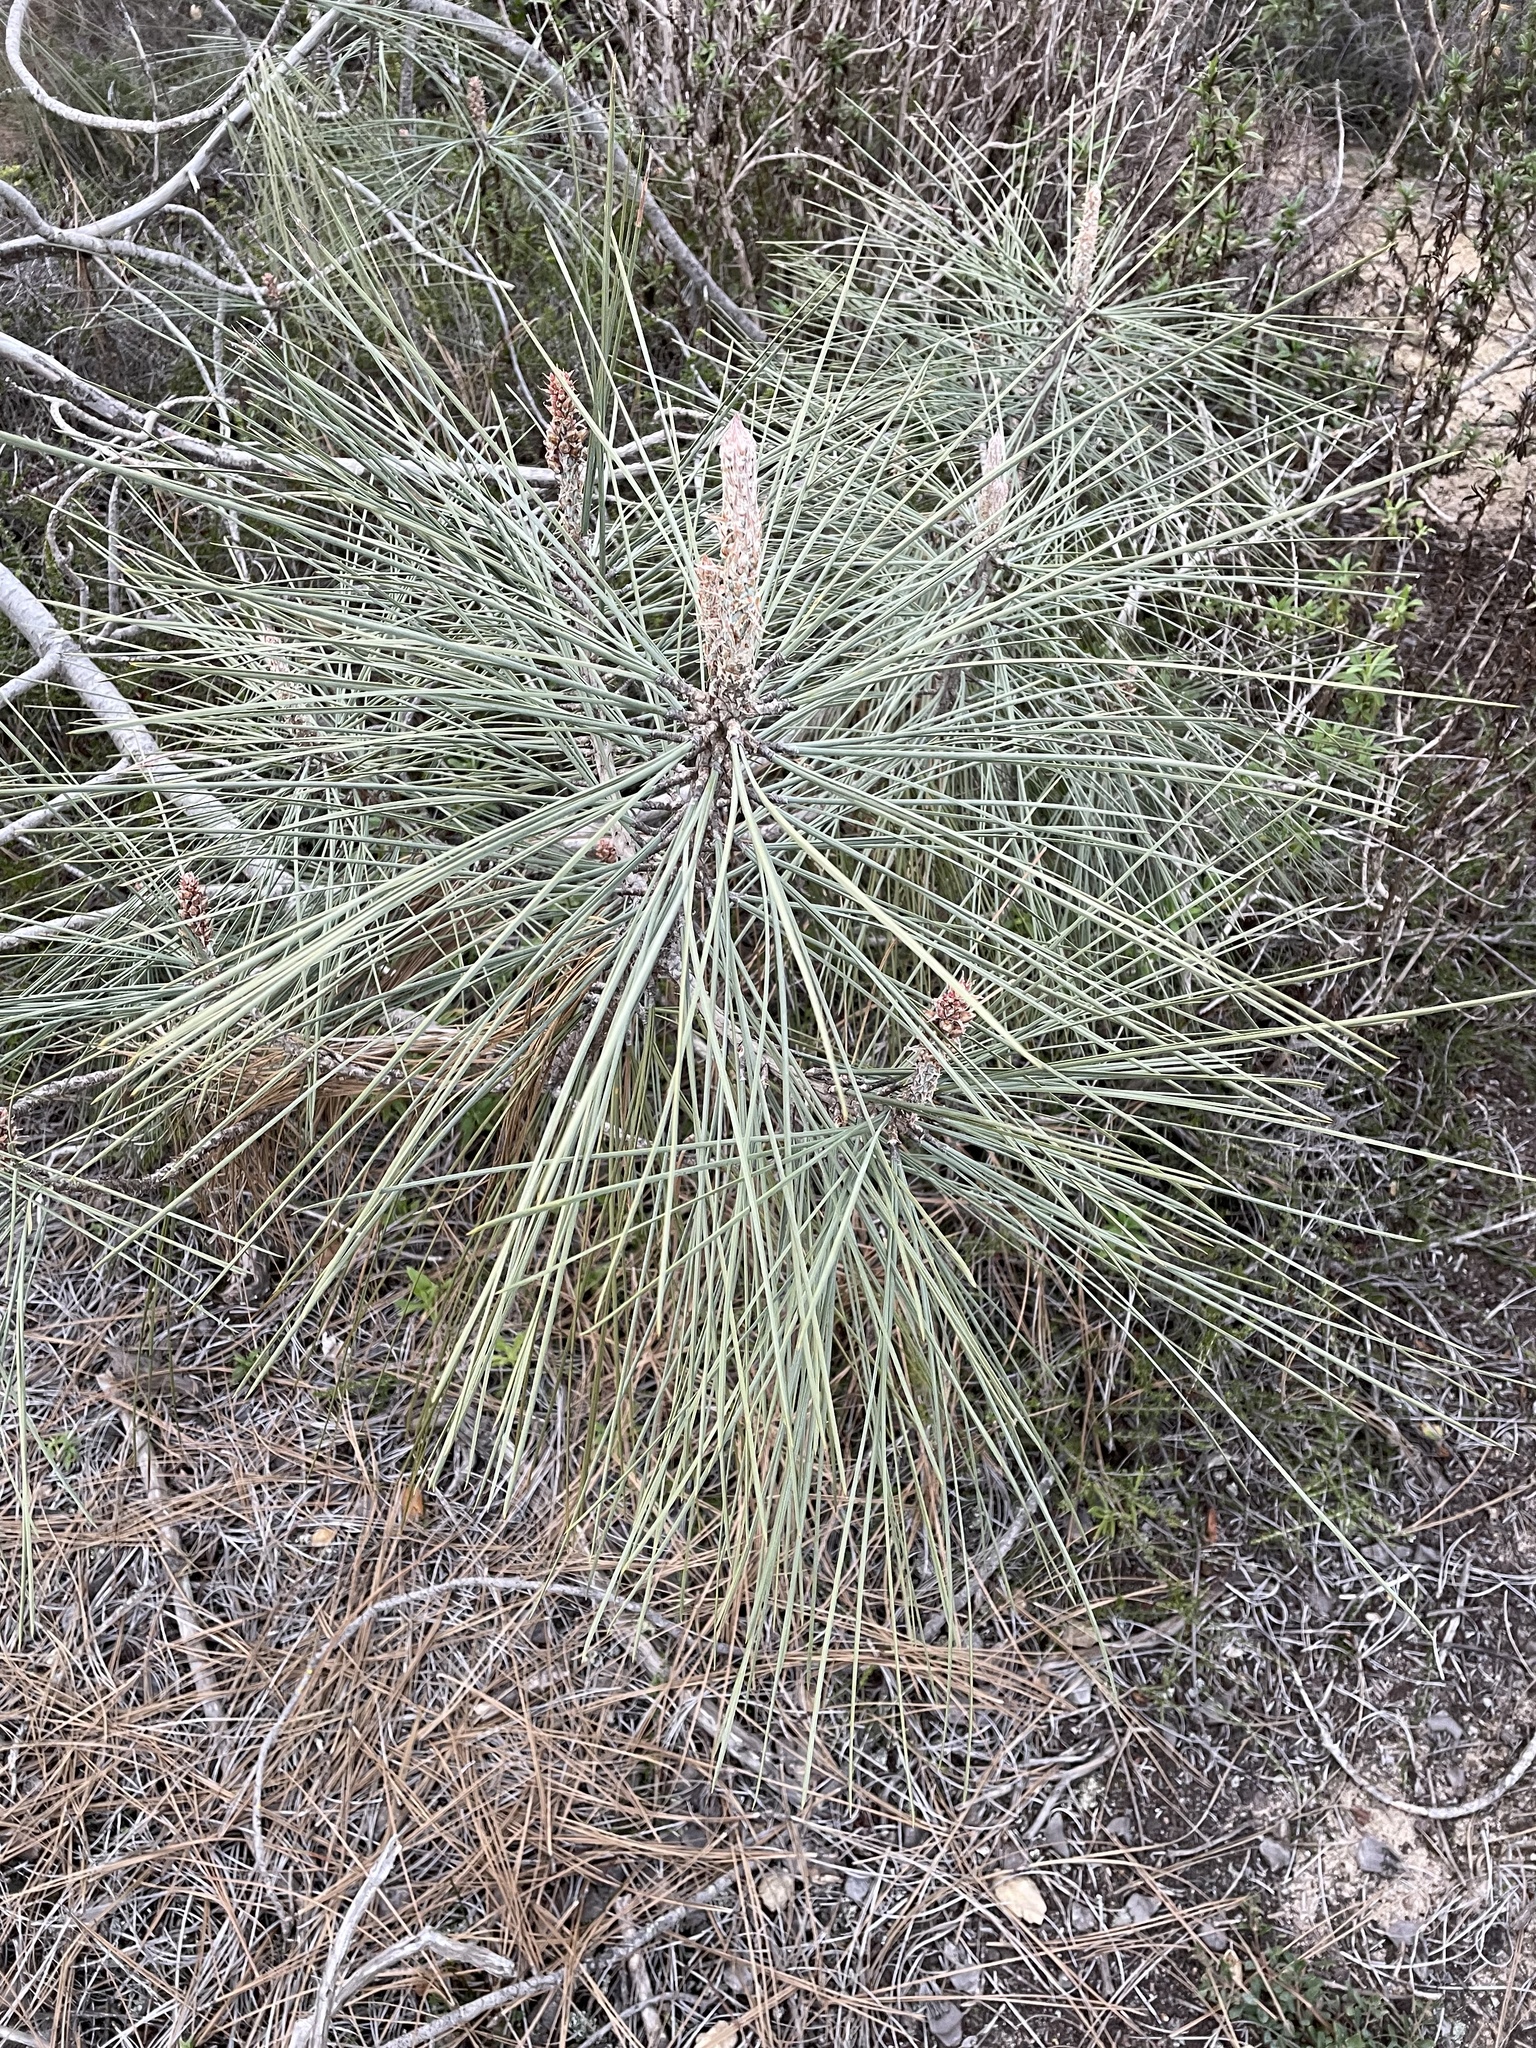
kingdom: Plantae
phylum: Tracheophyta
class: Pinopsida
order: Pinales
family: Pinaceae
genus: Pinus
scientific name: Pinus sabiniana
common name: Bull pine
